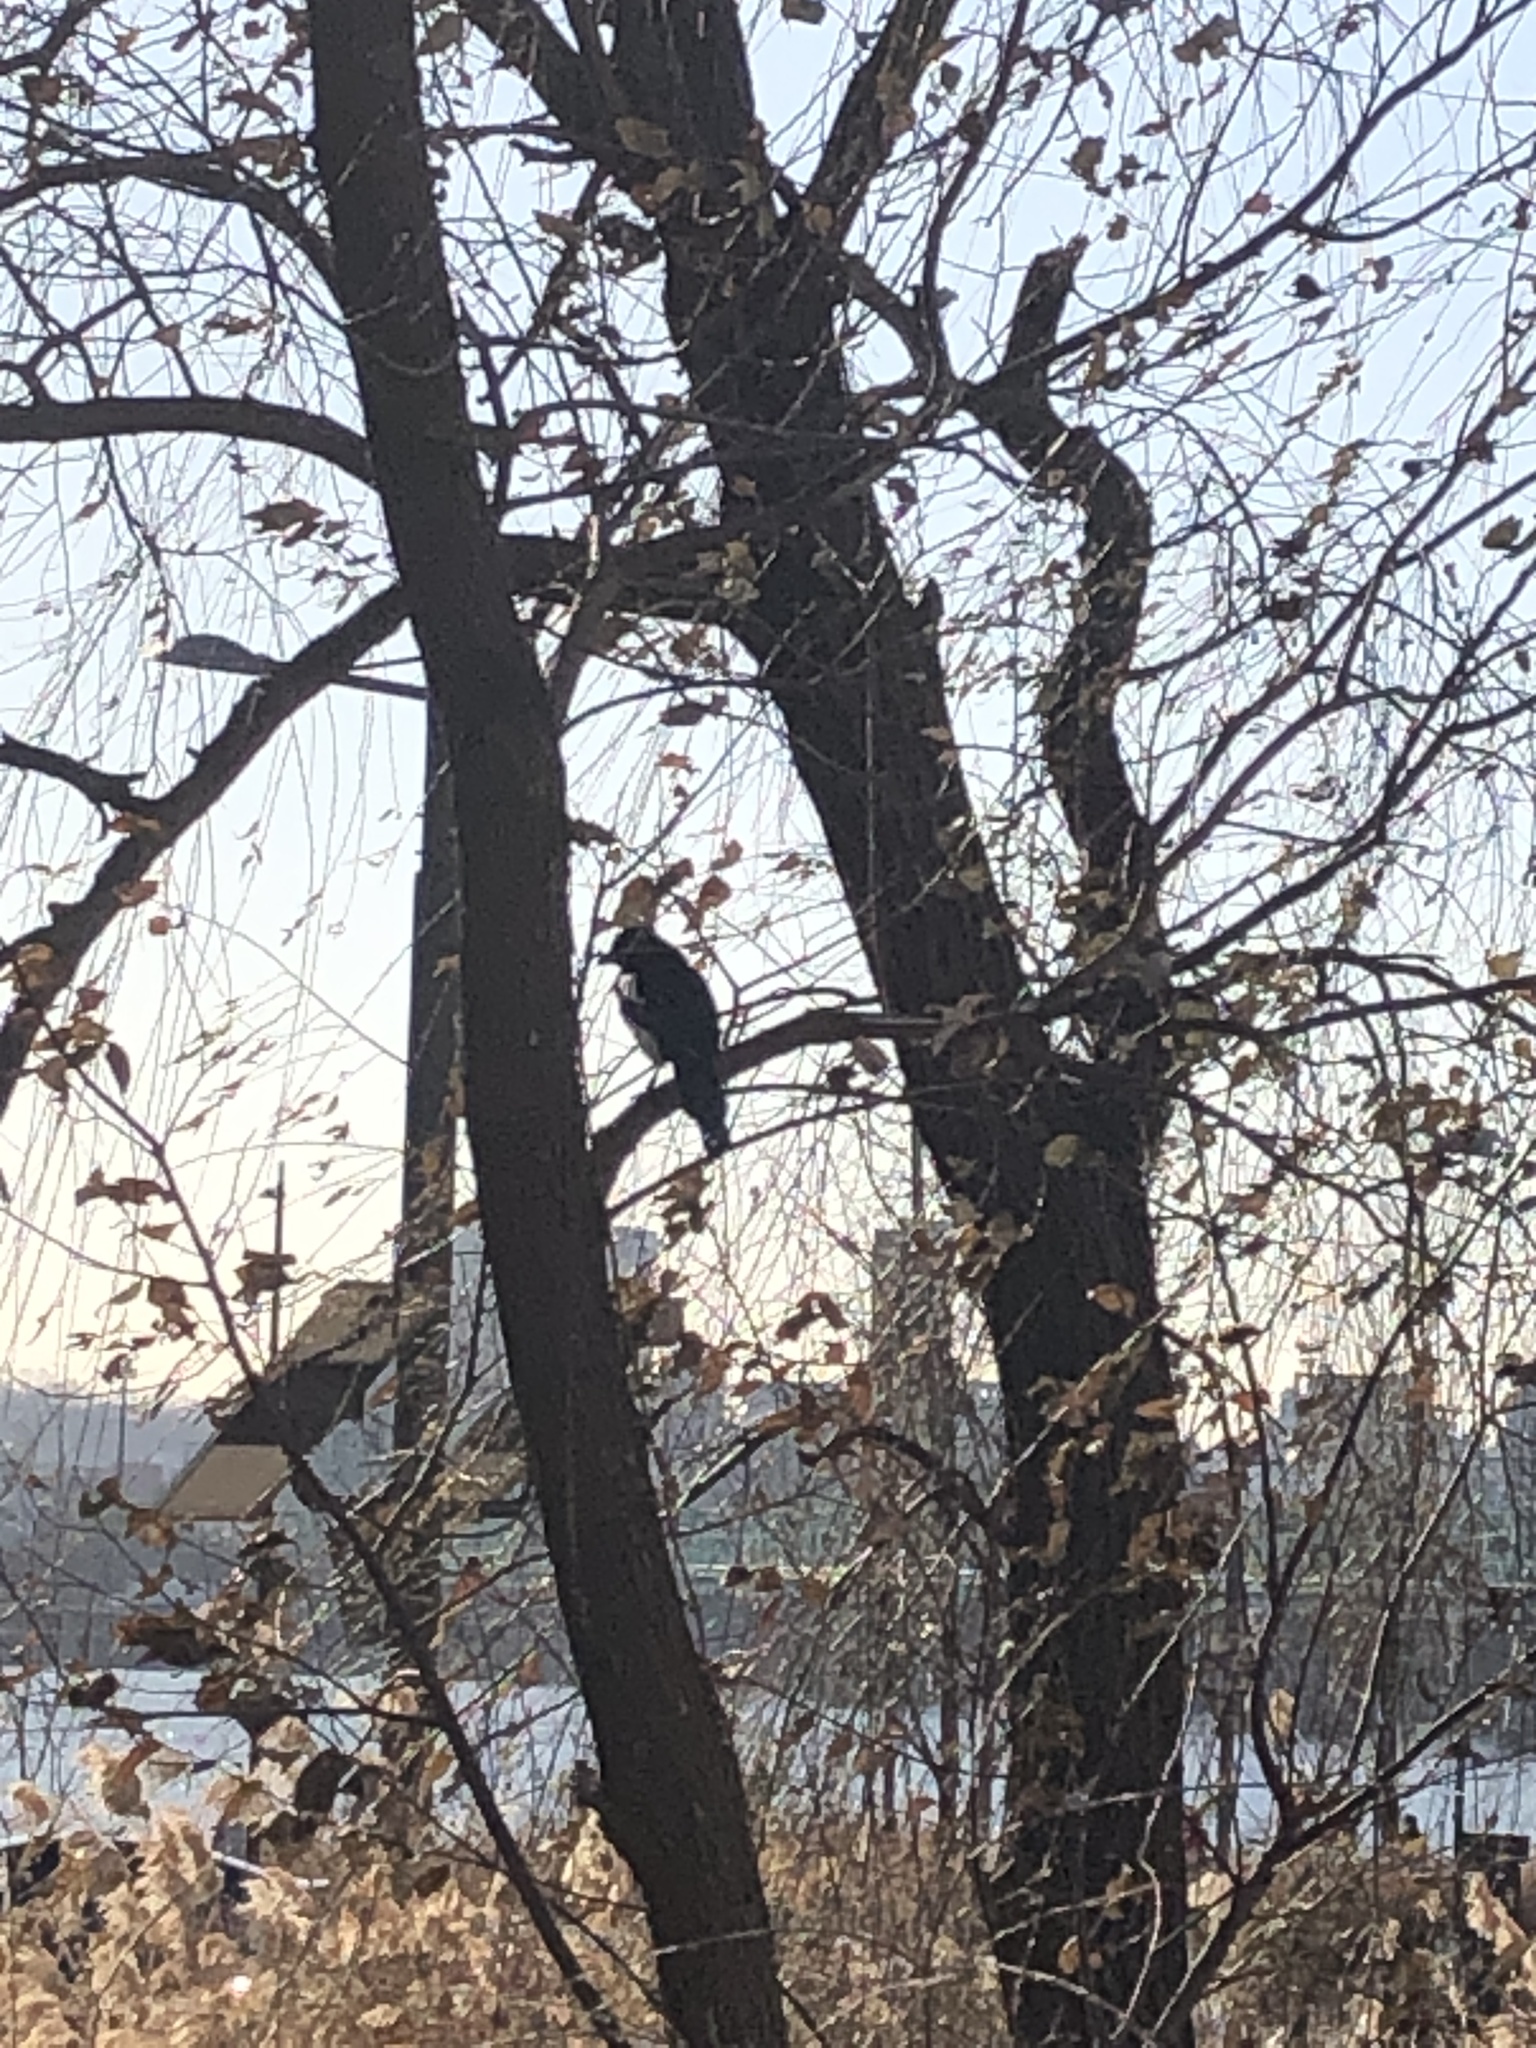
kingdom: Animalia
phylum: Chordata
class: Aves
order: Passeriformes
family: Corvidae
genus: Pica
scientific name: Pica serica
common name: Oriental magpie
